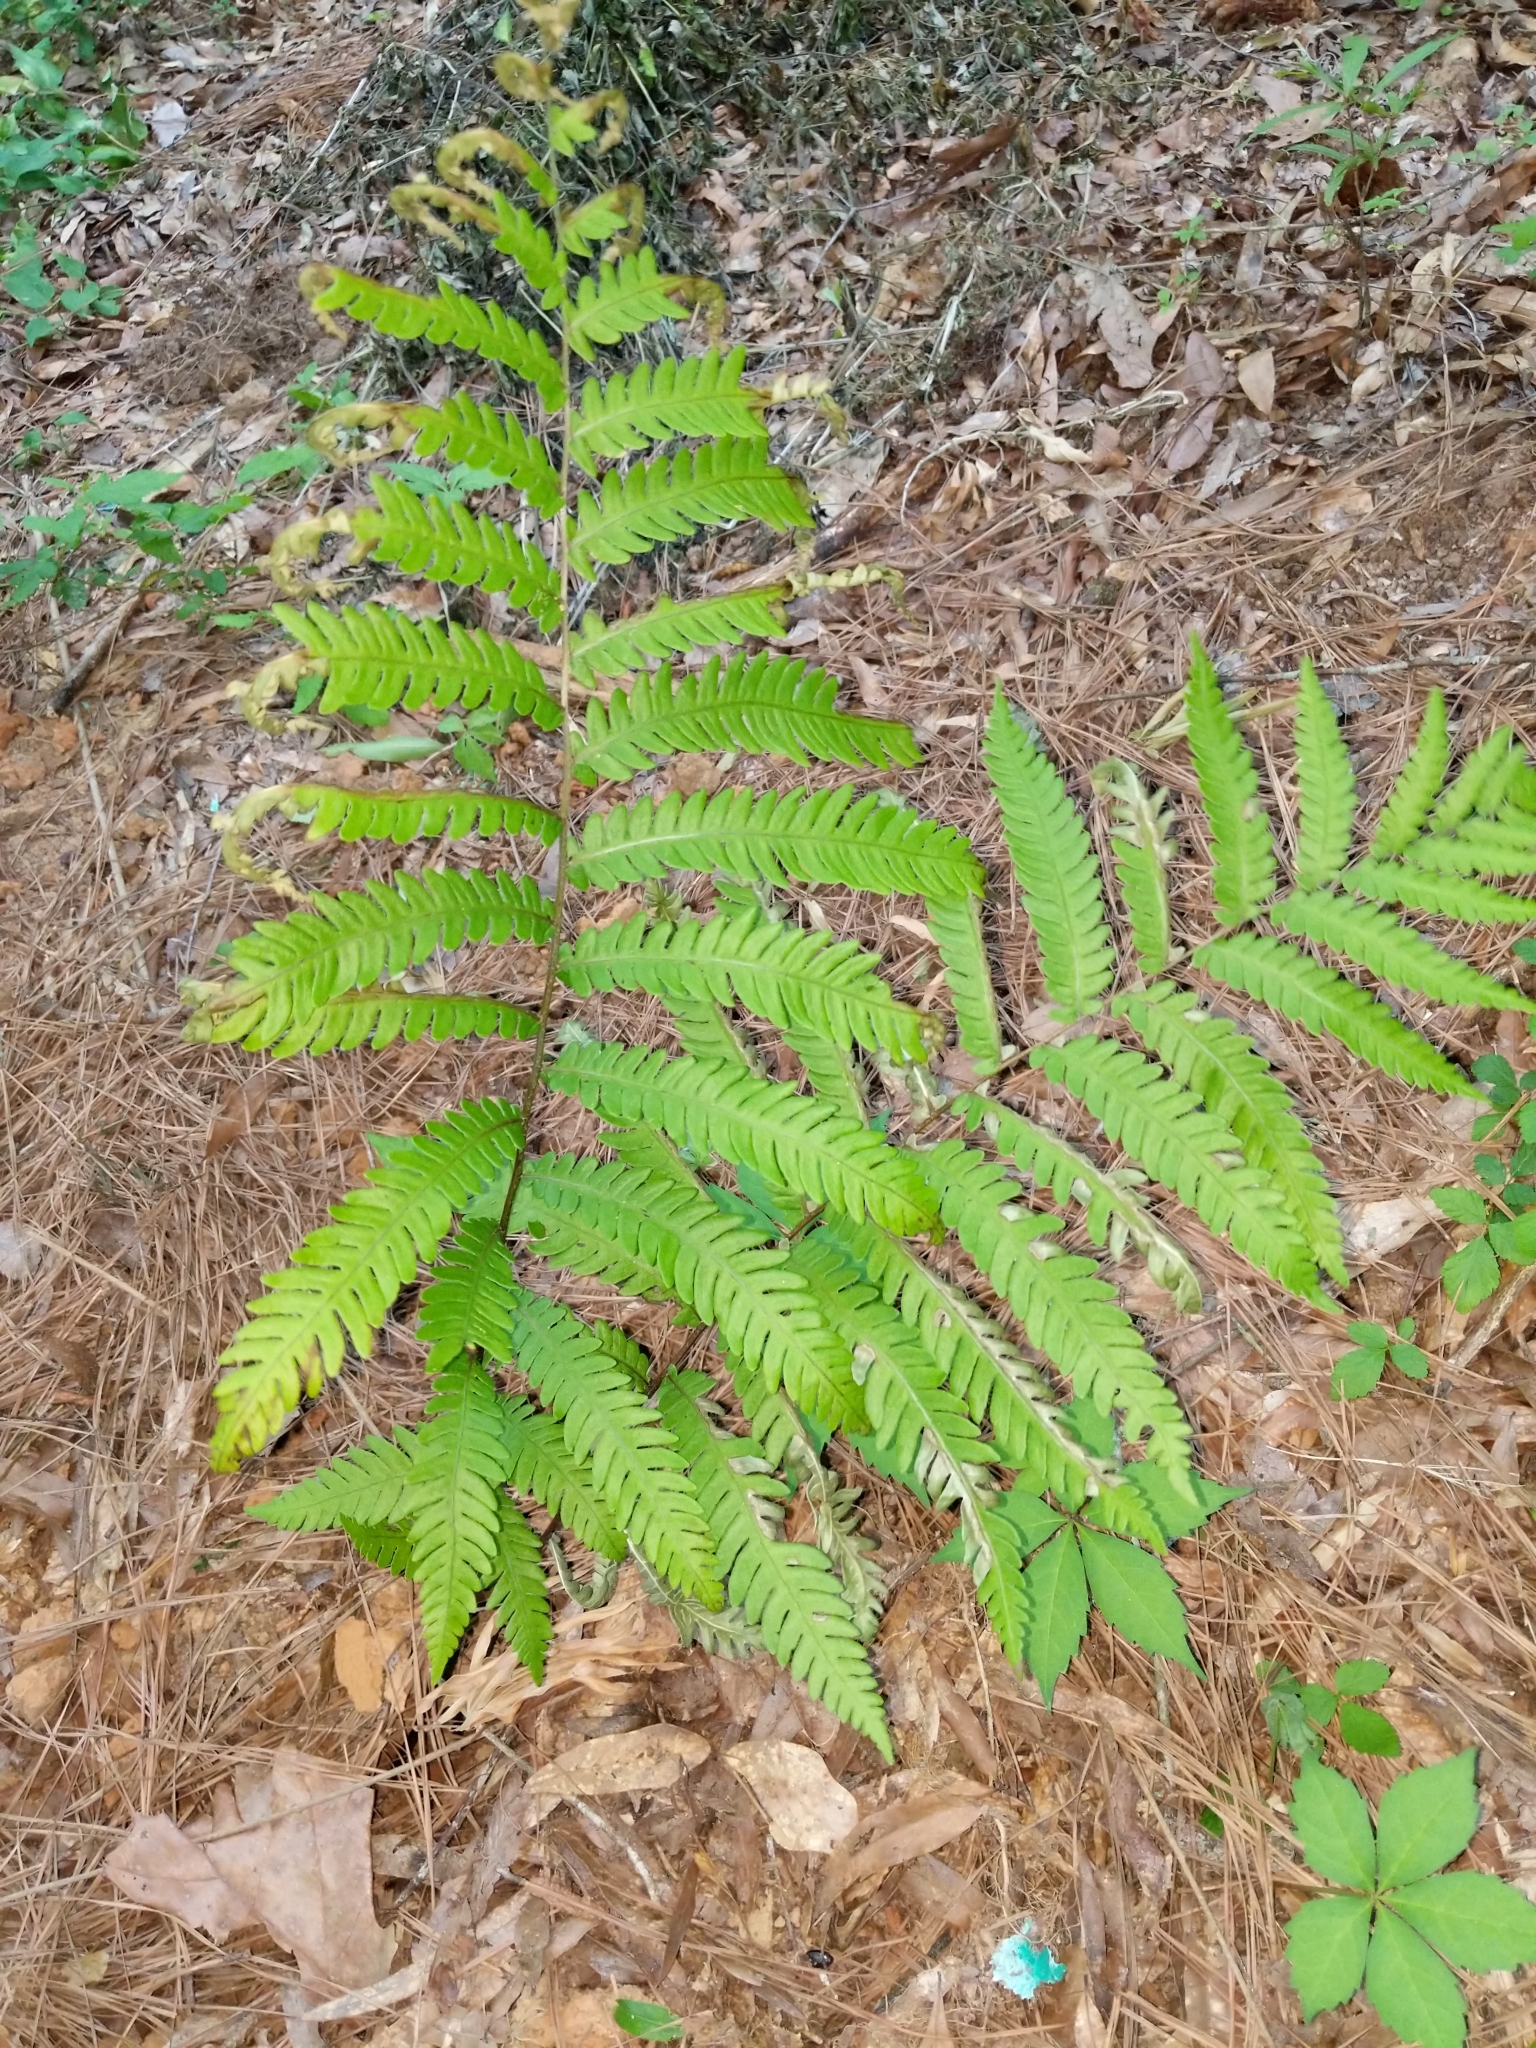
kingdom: Plantae
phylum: Tracheophyta
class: Polypodiopsida
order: Polypodiales
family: Blechnaceae
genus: Anchistea
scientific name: Anchistea virginica
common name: Virginia chain fern
